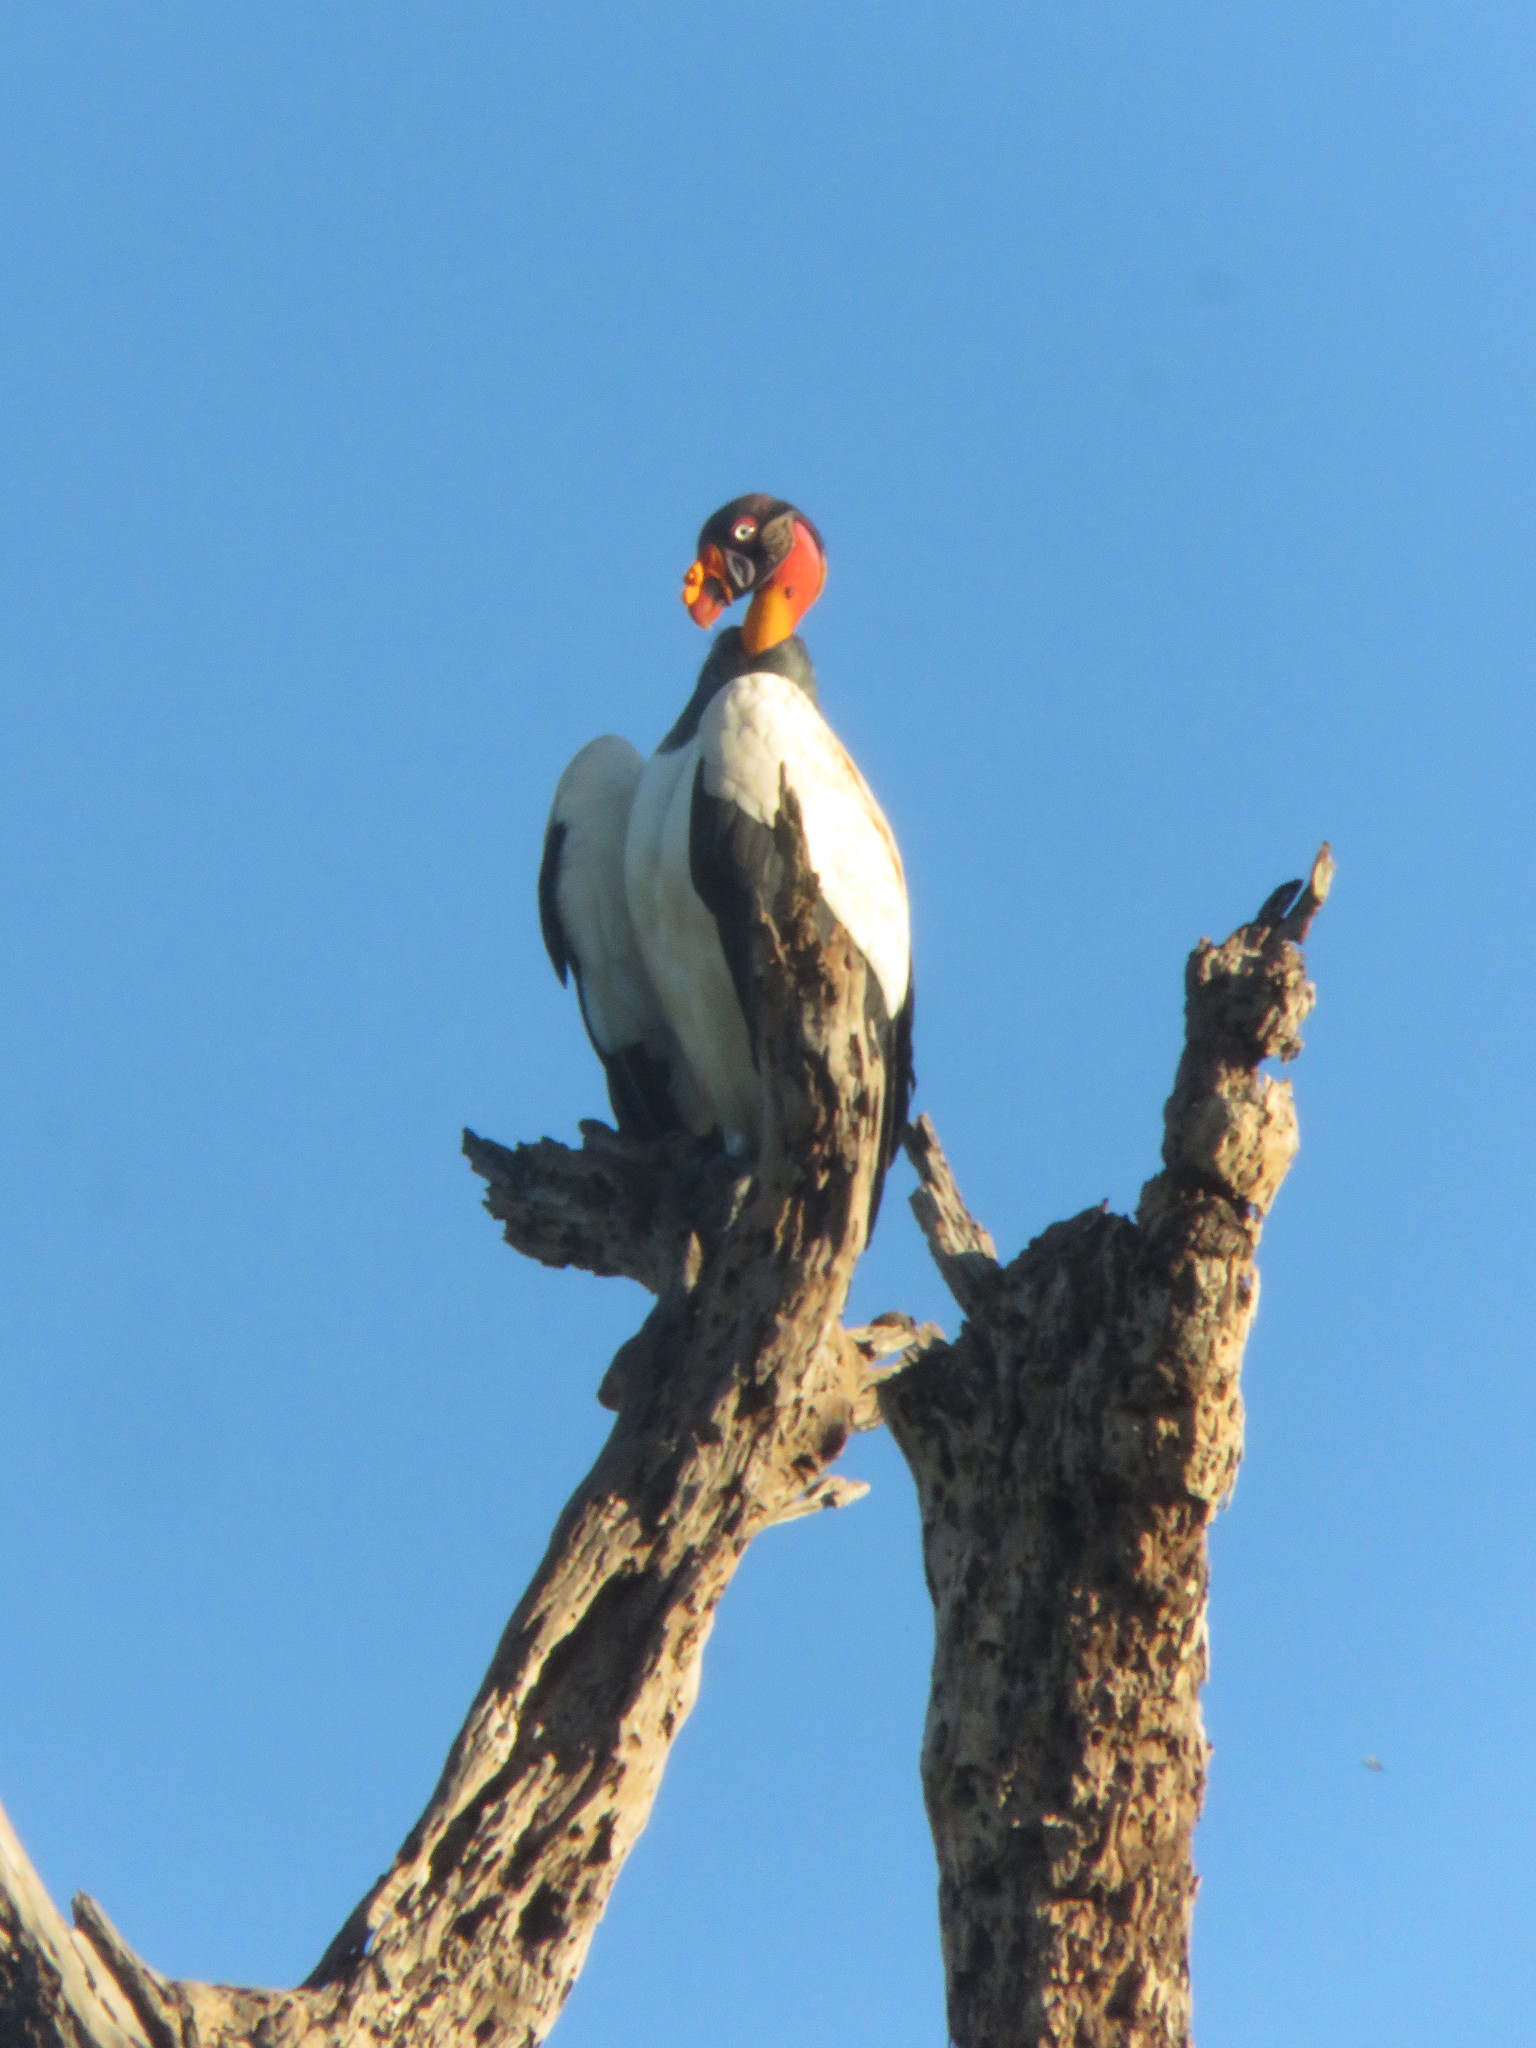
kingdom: Animalia
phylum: Chordata
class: Aves
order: Accipitriformes
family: Cathartidae
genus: Sarcoramphus
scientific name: Sarcoramphus papa
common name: King vulture
